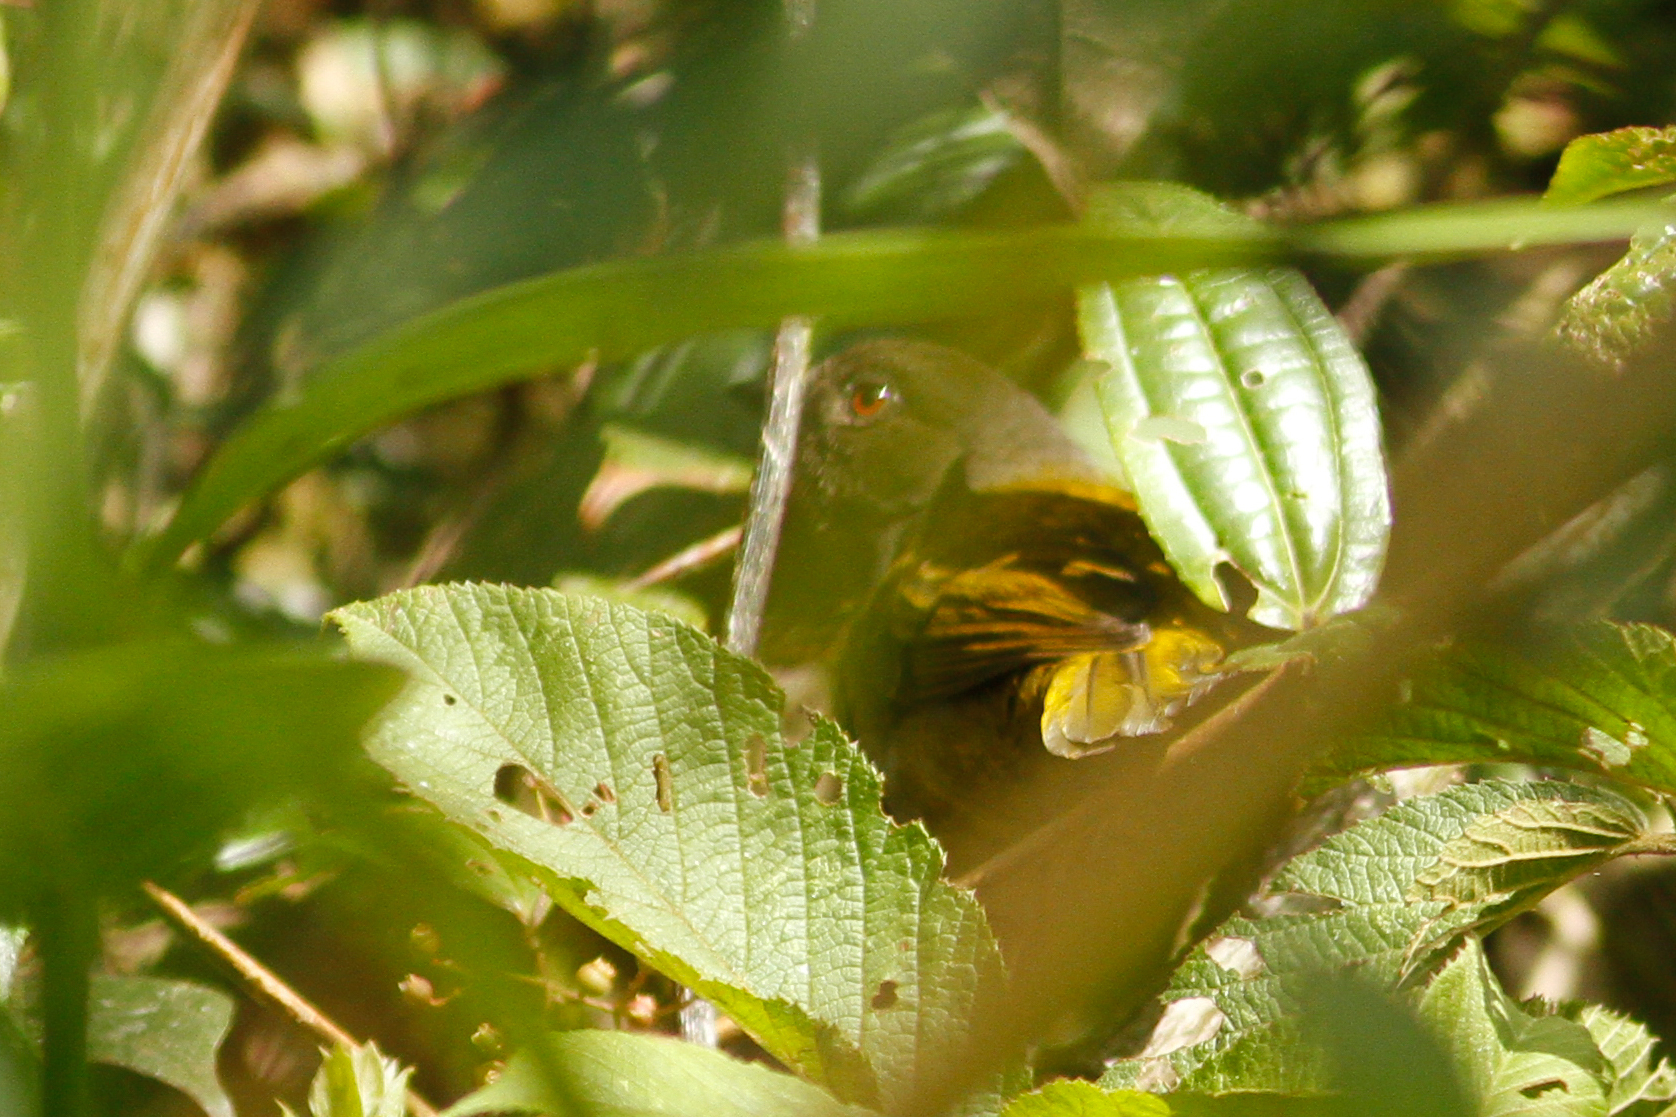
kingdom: Animalia
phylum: Chordata
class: Aves
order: Passeriformes
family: Passerellidae
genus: Chlorospingus
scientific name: Chlorospingus semifuscus
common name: Dusky bush-tanager
